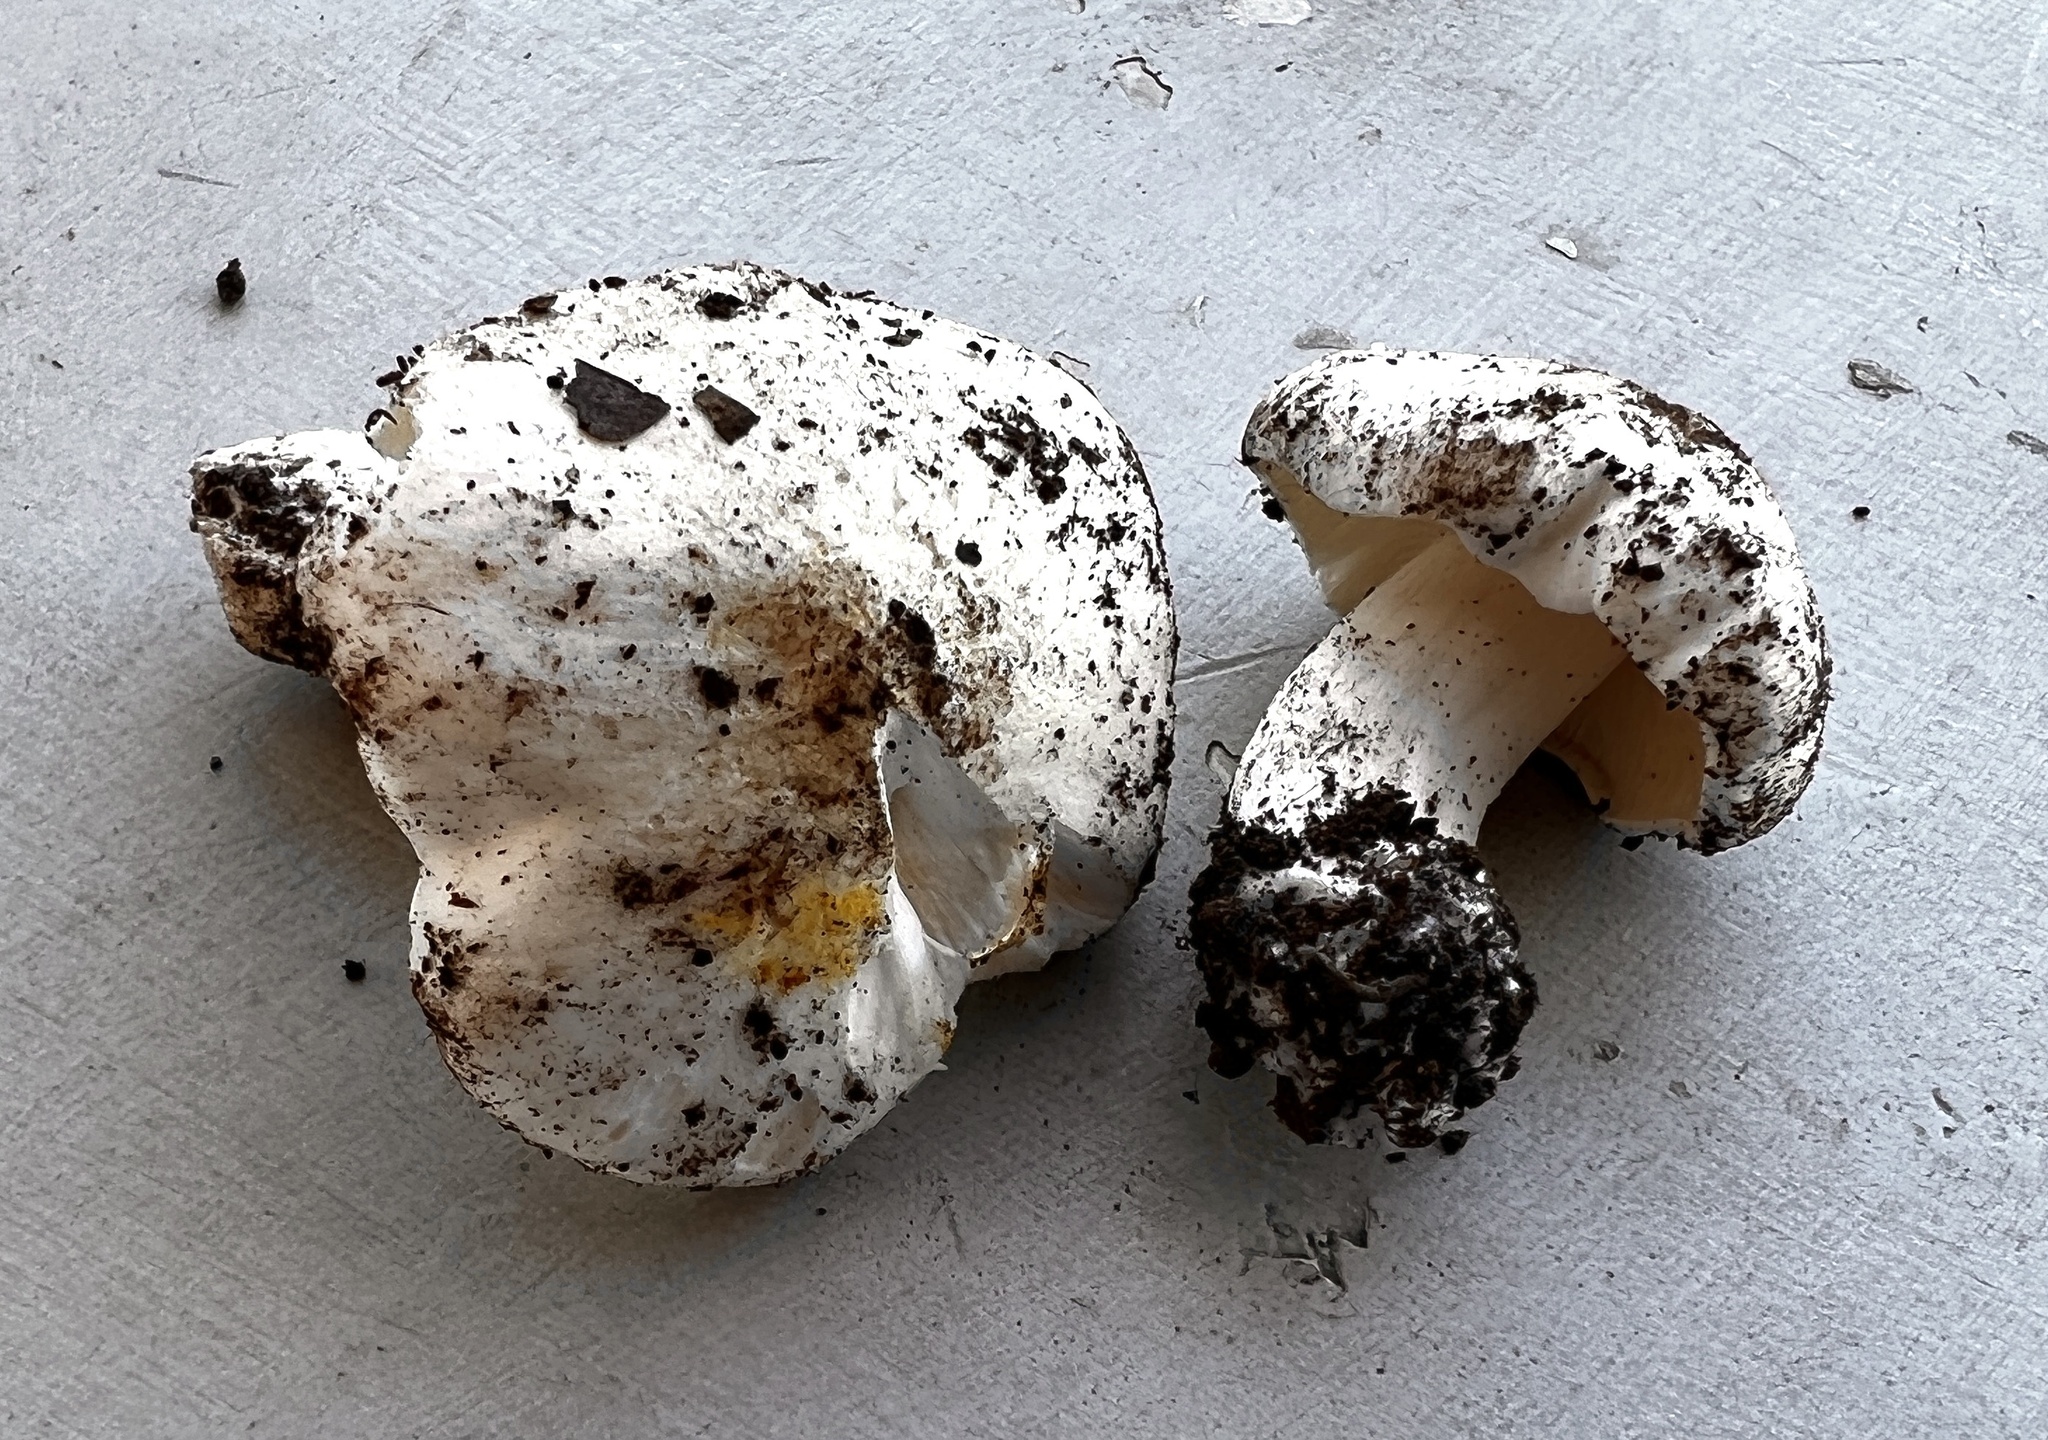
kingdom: Fungi
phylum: Basidiomycota
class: Agaricomycetes
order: Agaricales
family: Tricholomataceae
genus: Tricholoma
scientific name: Tricholoma columbetta
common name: Blue spot knight
